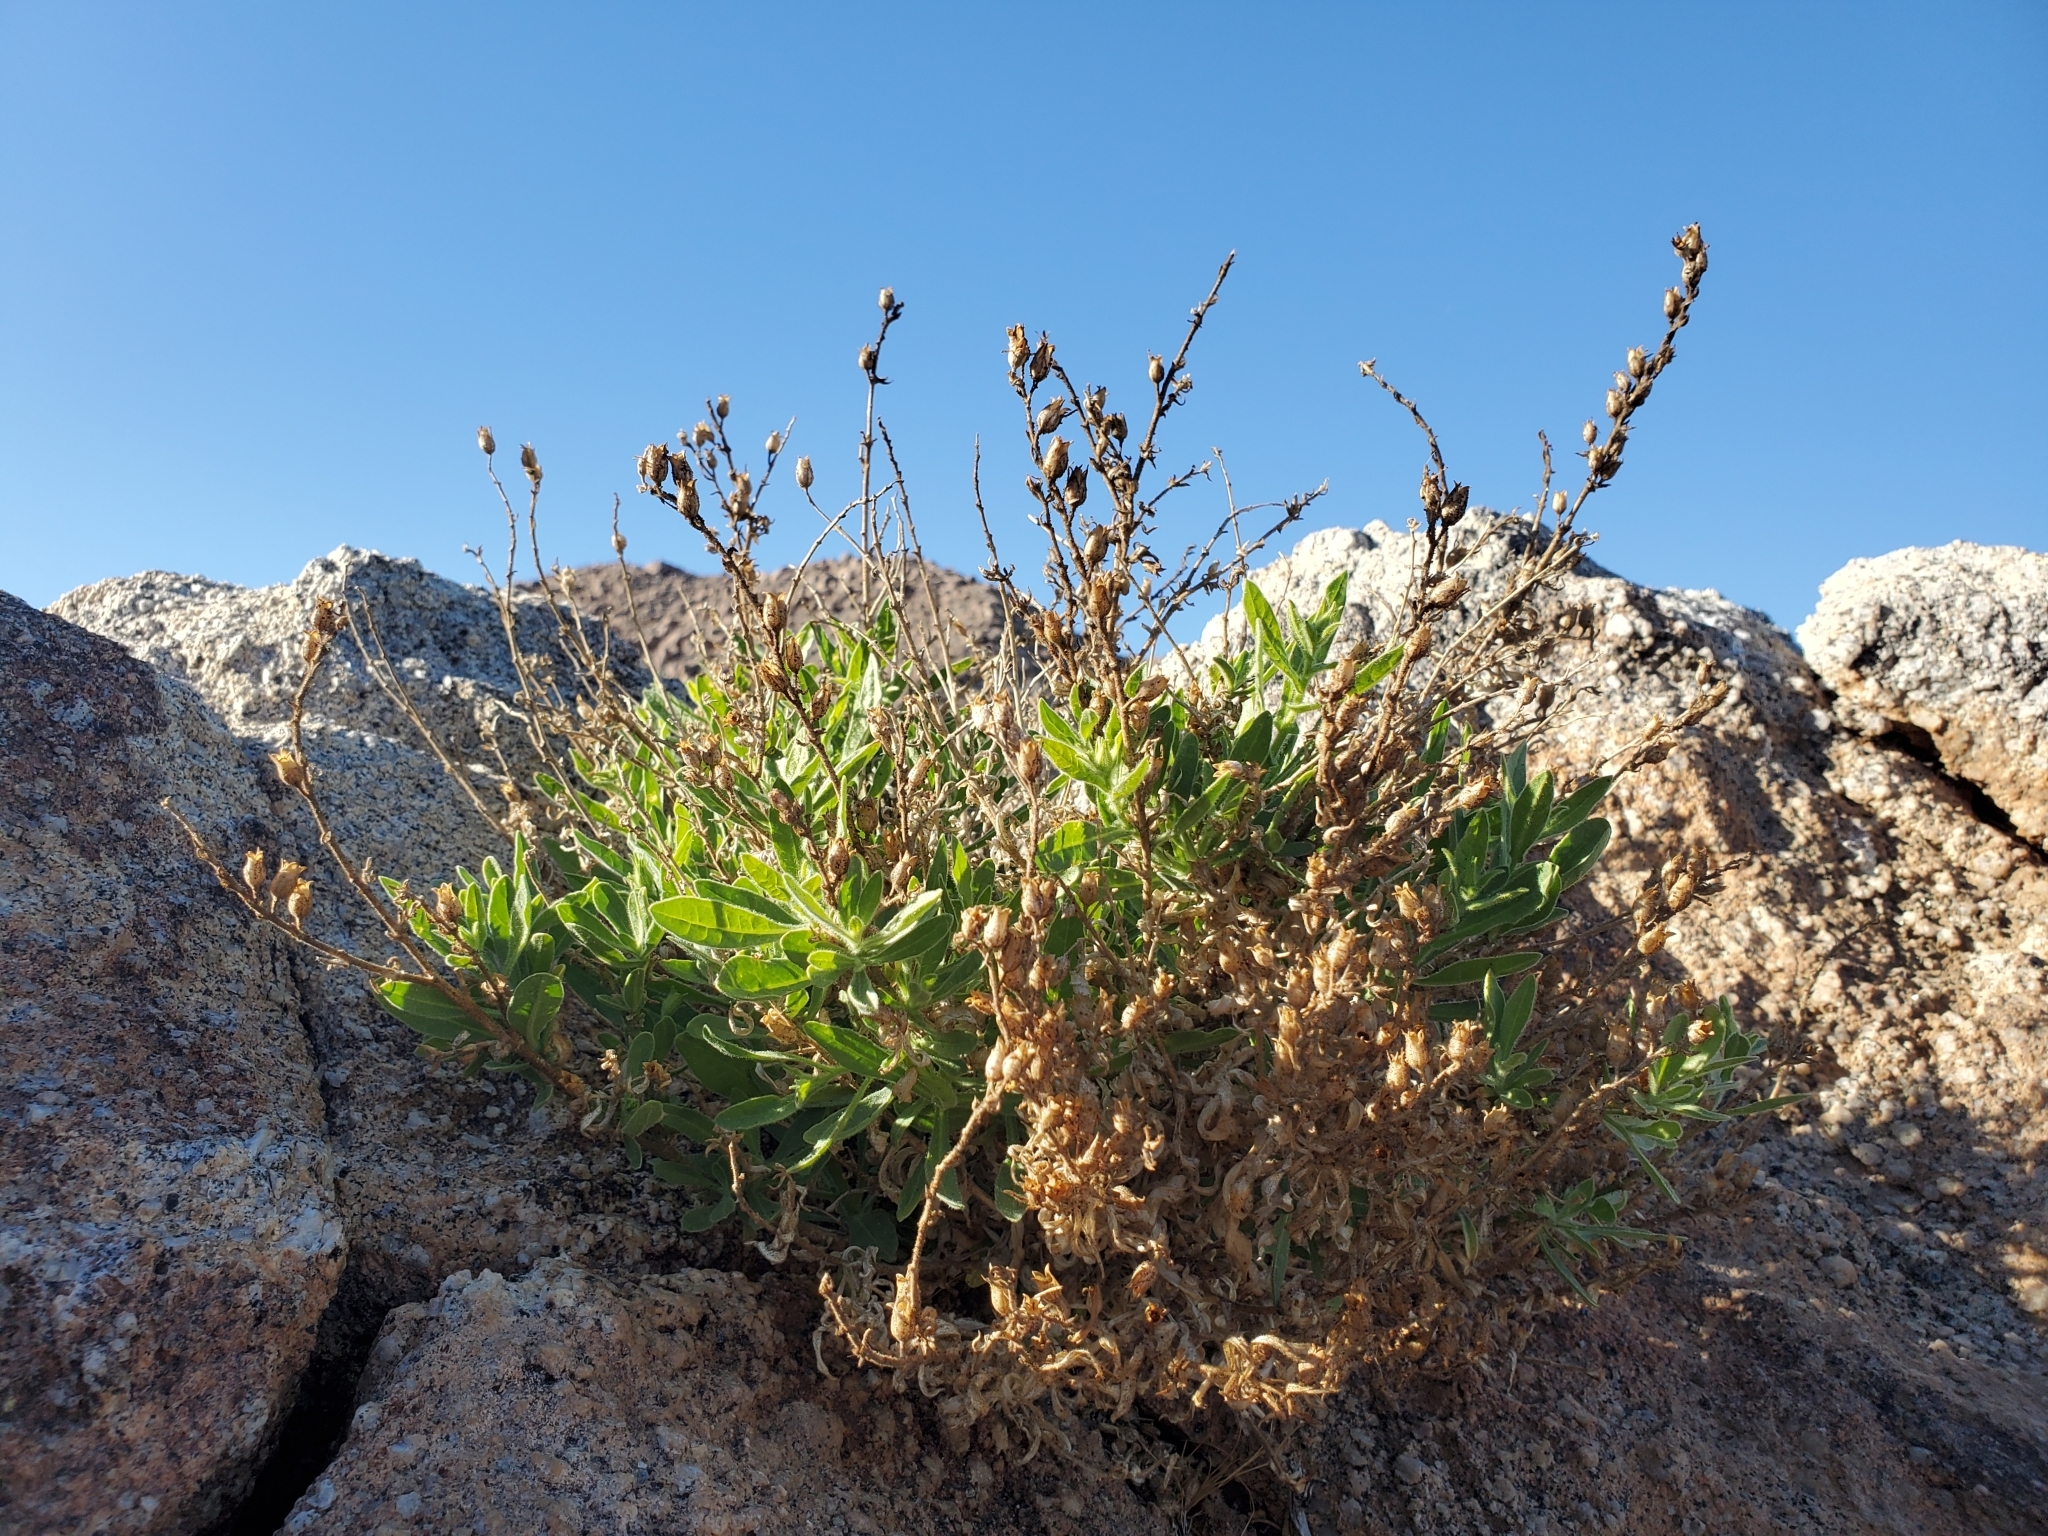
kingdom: Plantae
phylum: Tracheophyta
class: Magnoliopsida
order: Solanales
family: Solanaceae
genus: Nicotiana
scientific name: Nicotiana obtusifolia
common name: Desert tobacco
